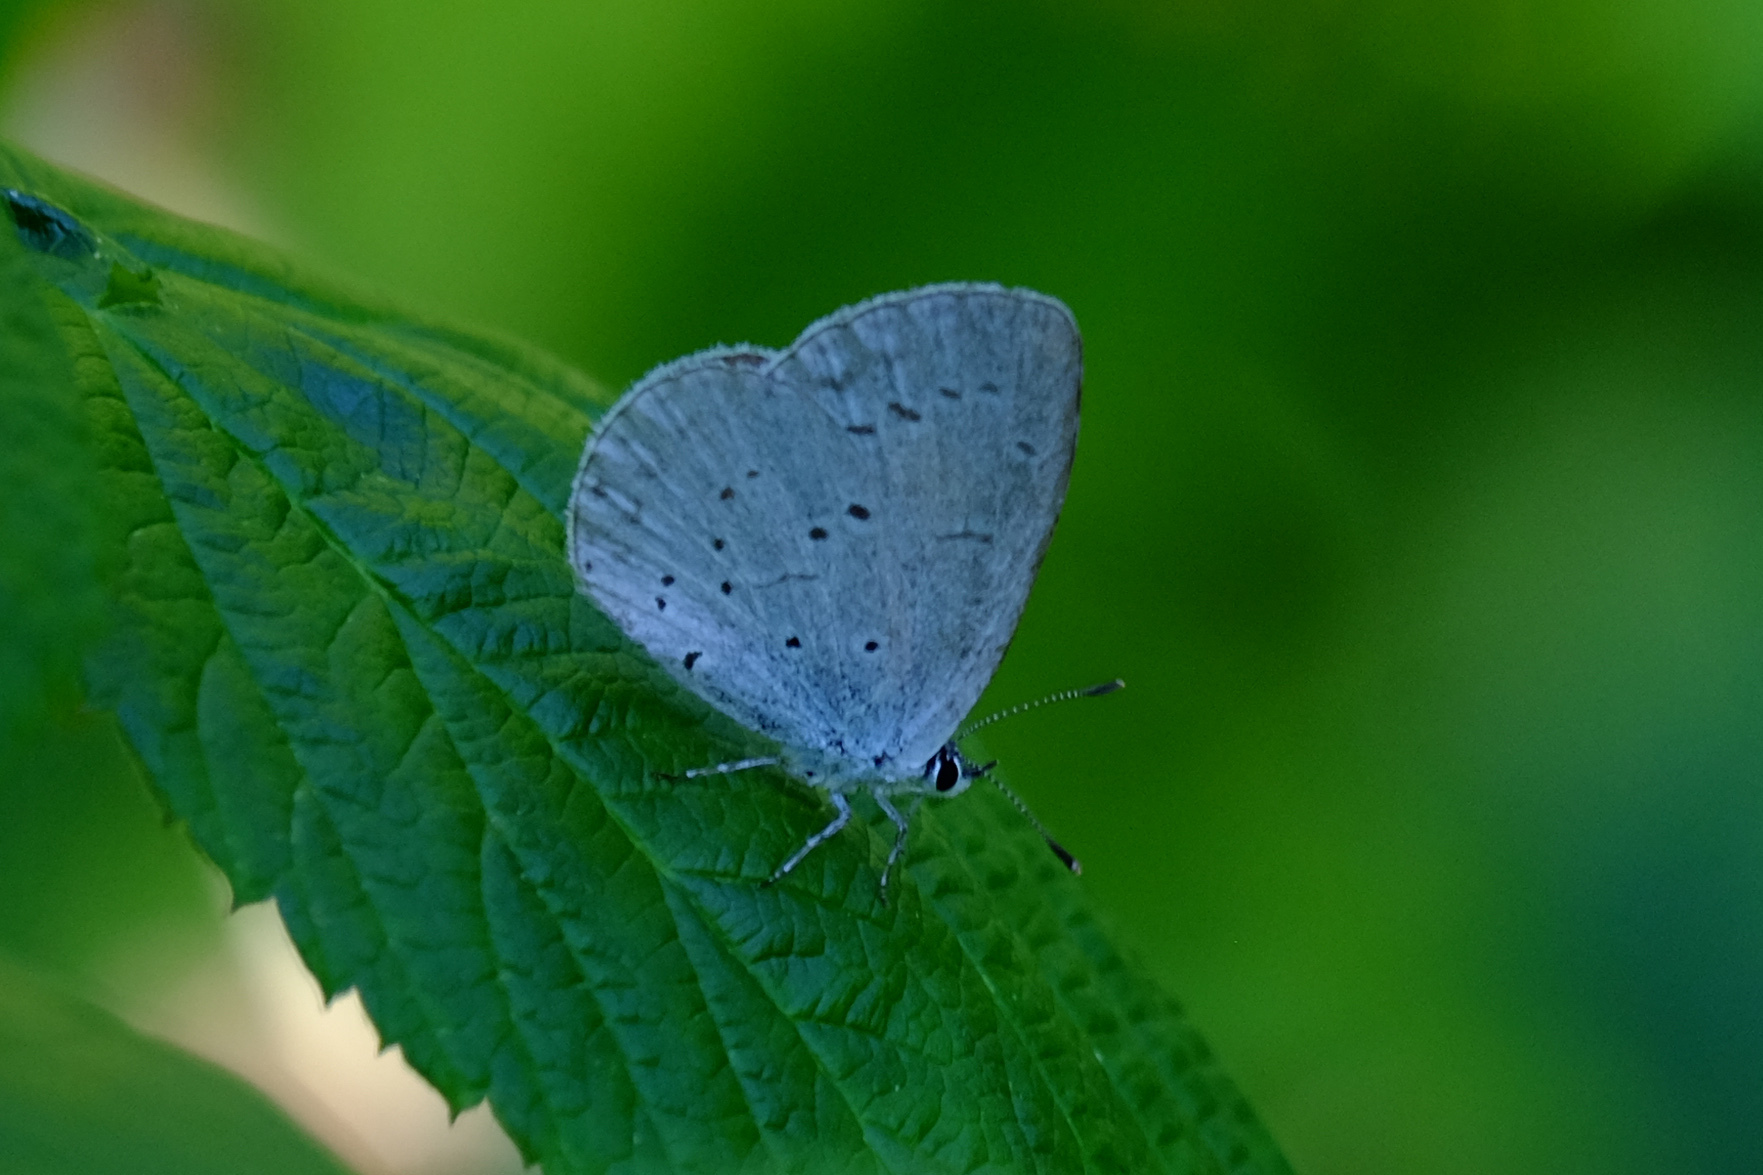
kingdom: Animalia
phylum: Arthropoda
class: Insecta
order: Lepidoptera
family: Lycaenidae
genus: Celastrina
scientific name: Celastrina argiolus
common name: Holly blue
